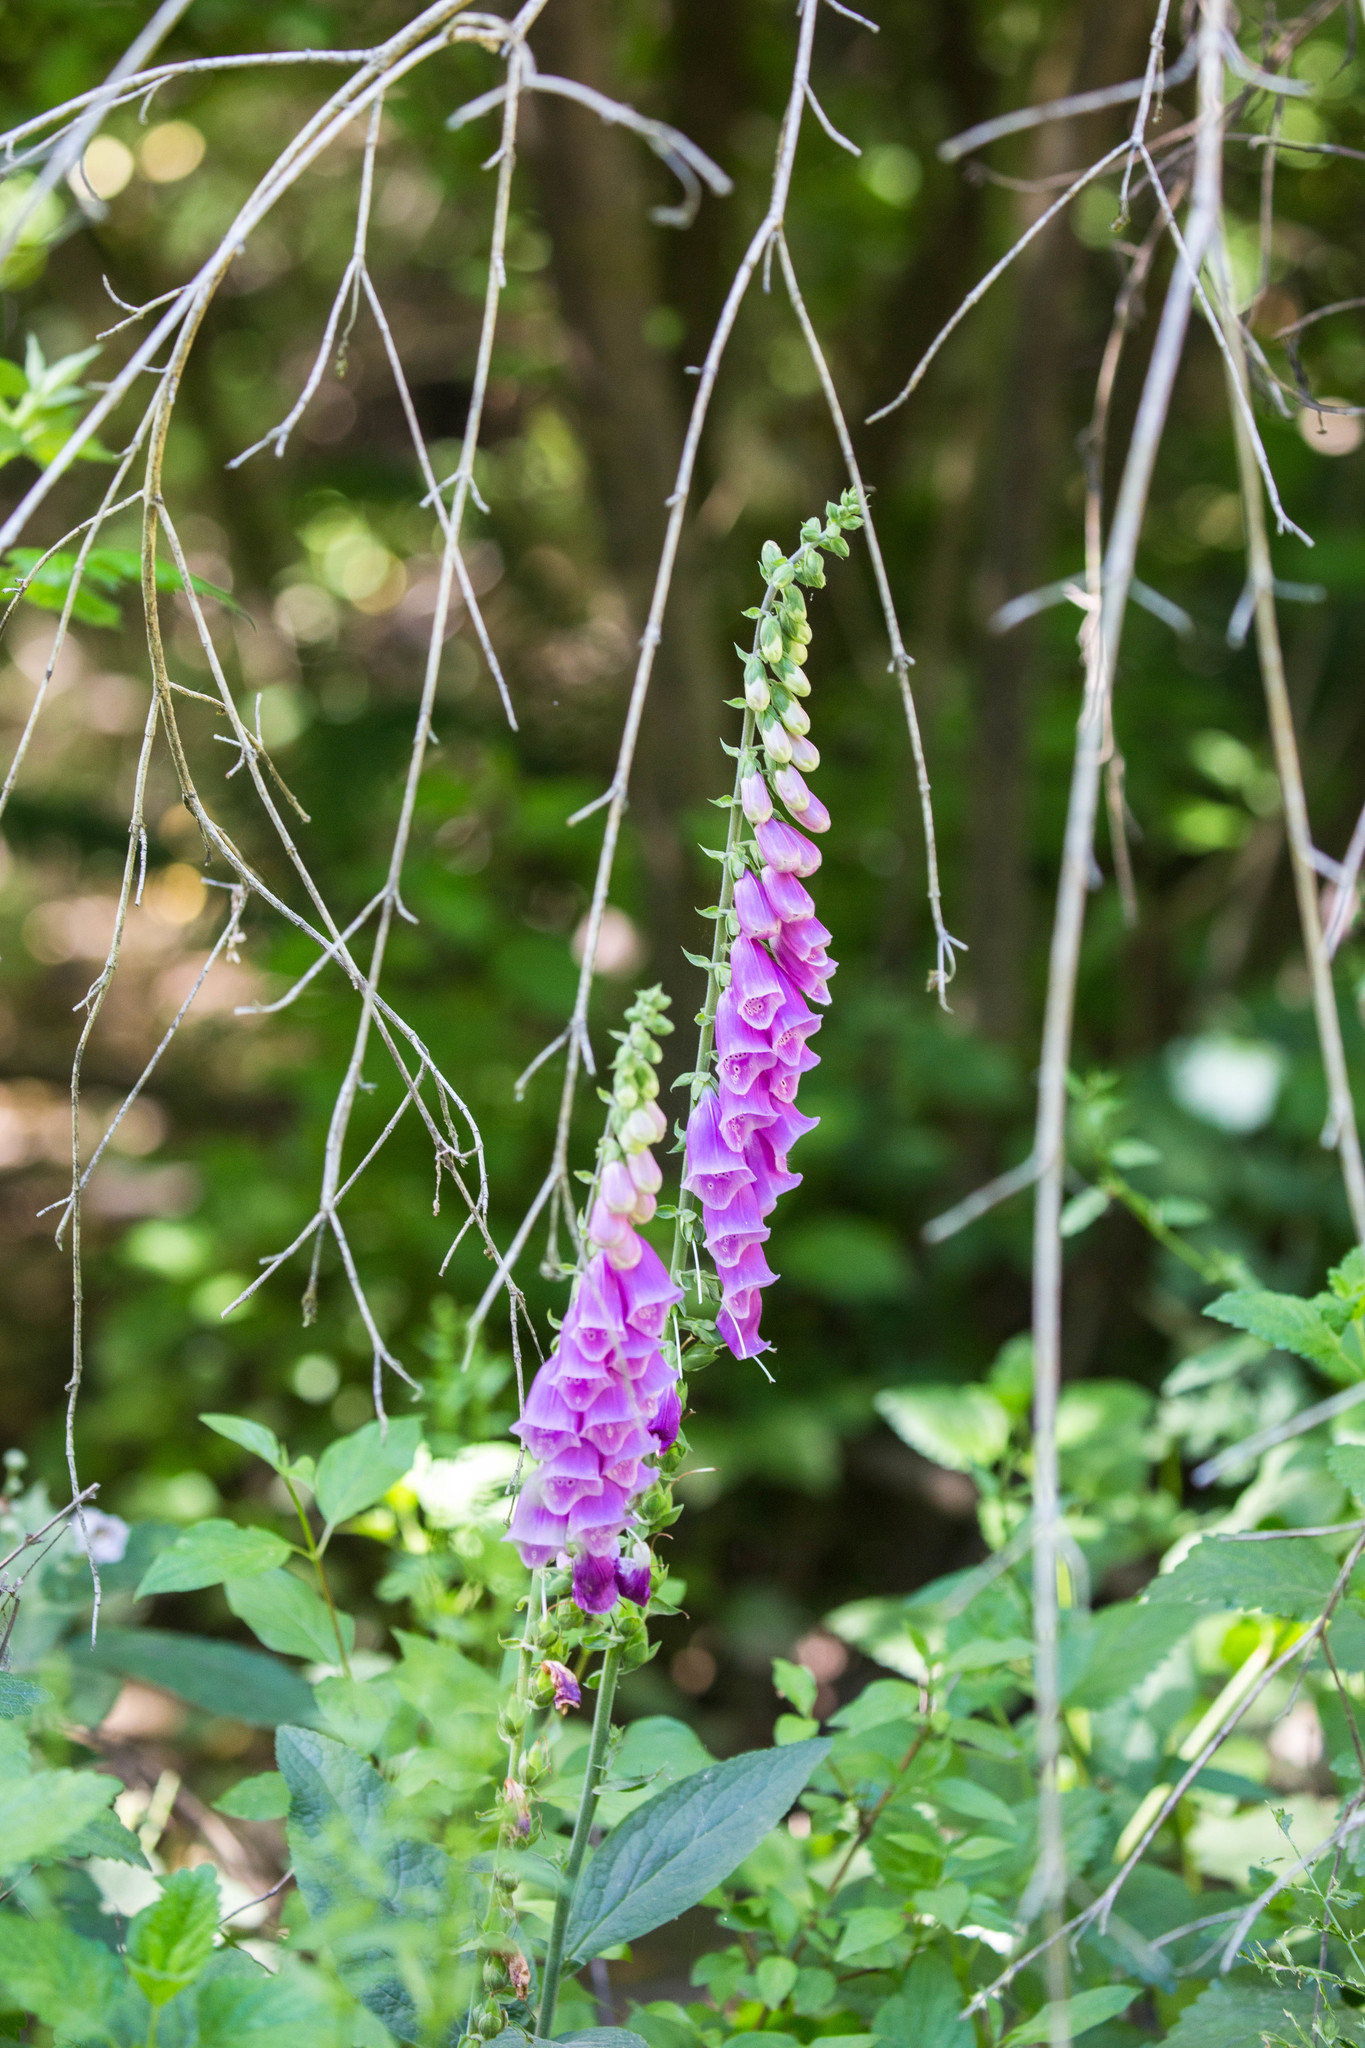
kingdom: Plantae
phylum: Tracheophyta
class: Magnoliopsida
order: Lamiales
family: Plantaginaceae
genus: Digitalis
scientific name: Digitalis purpurea
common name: Foxglove
